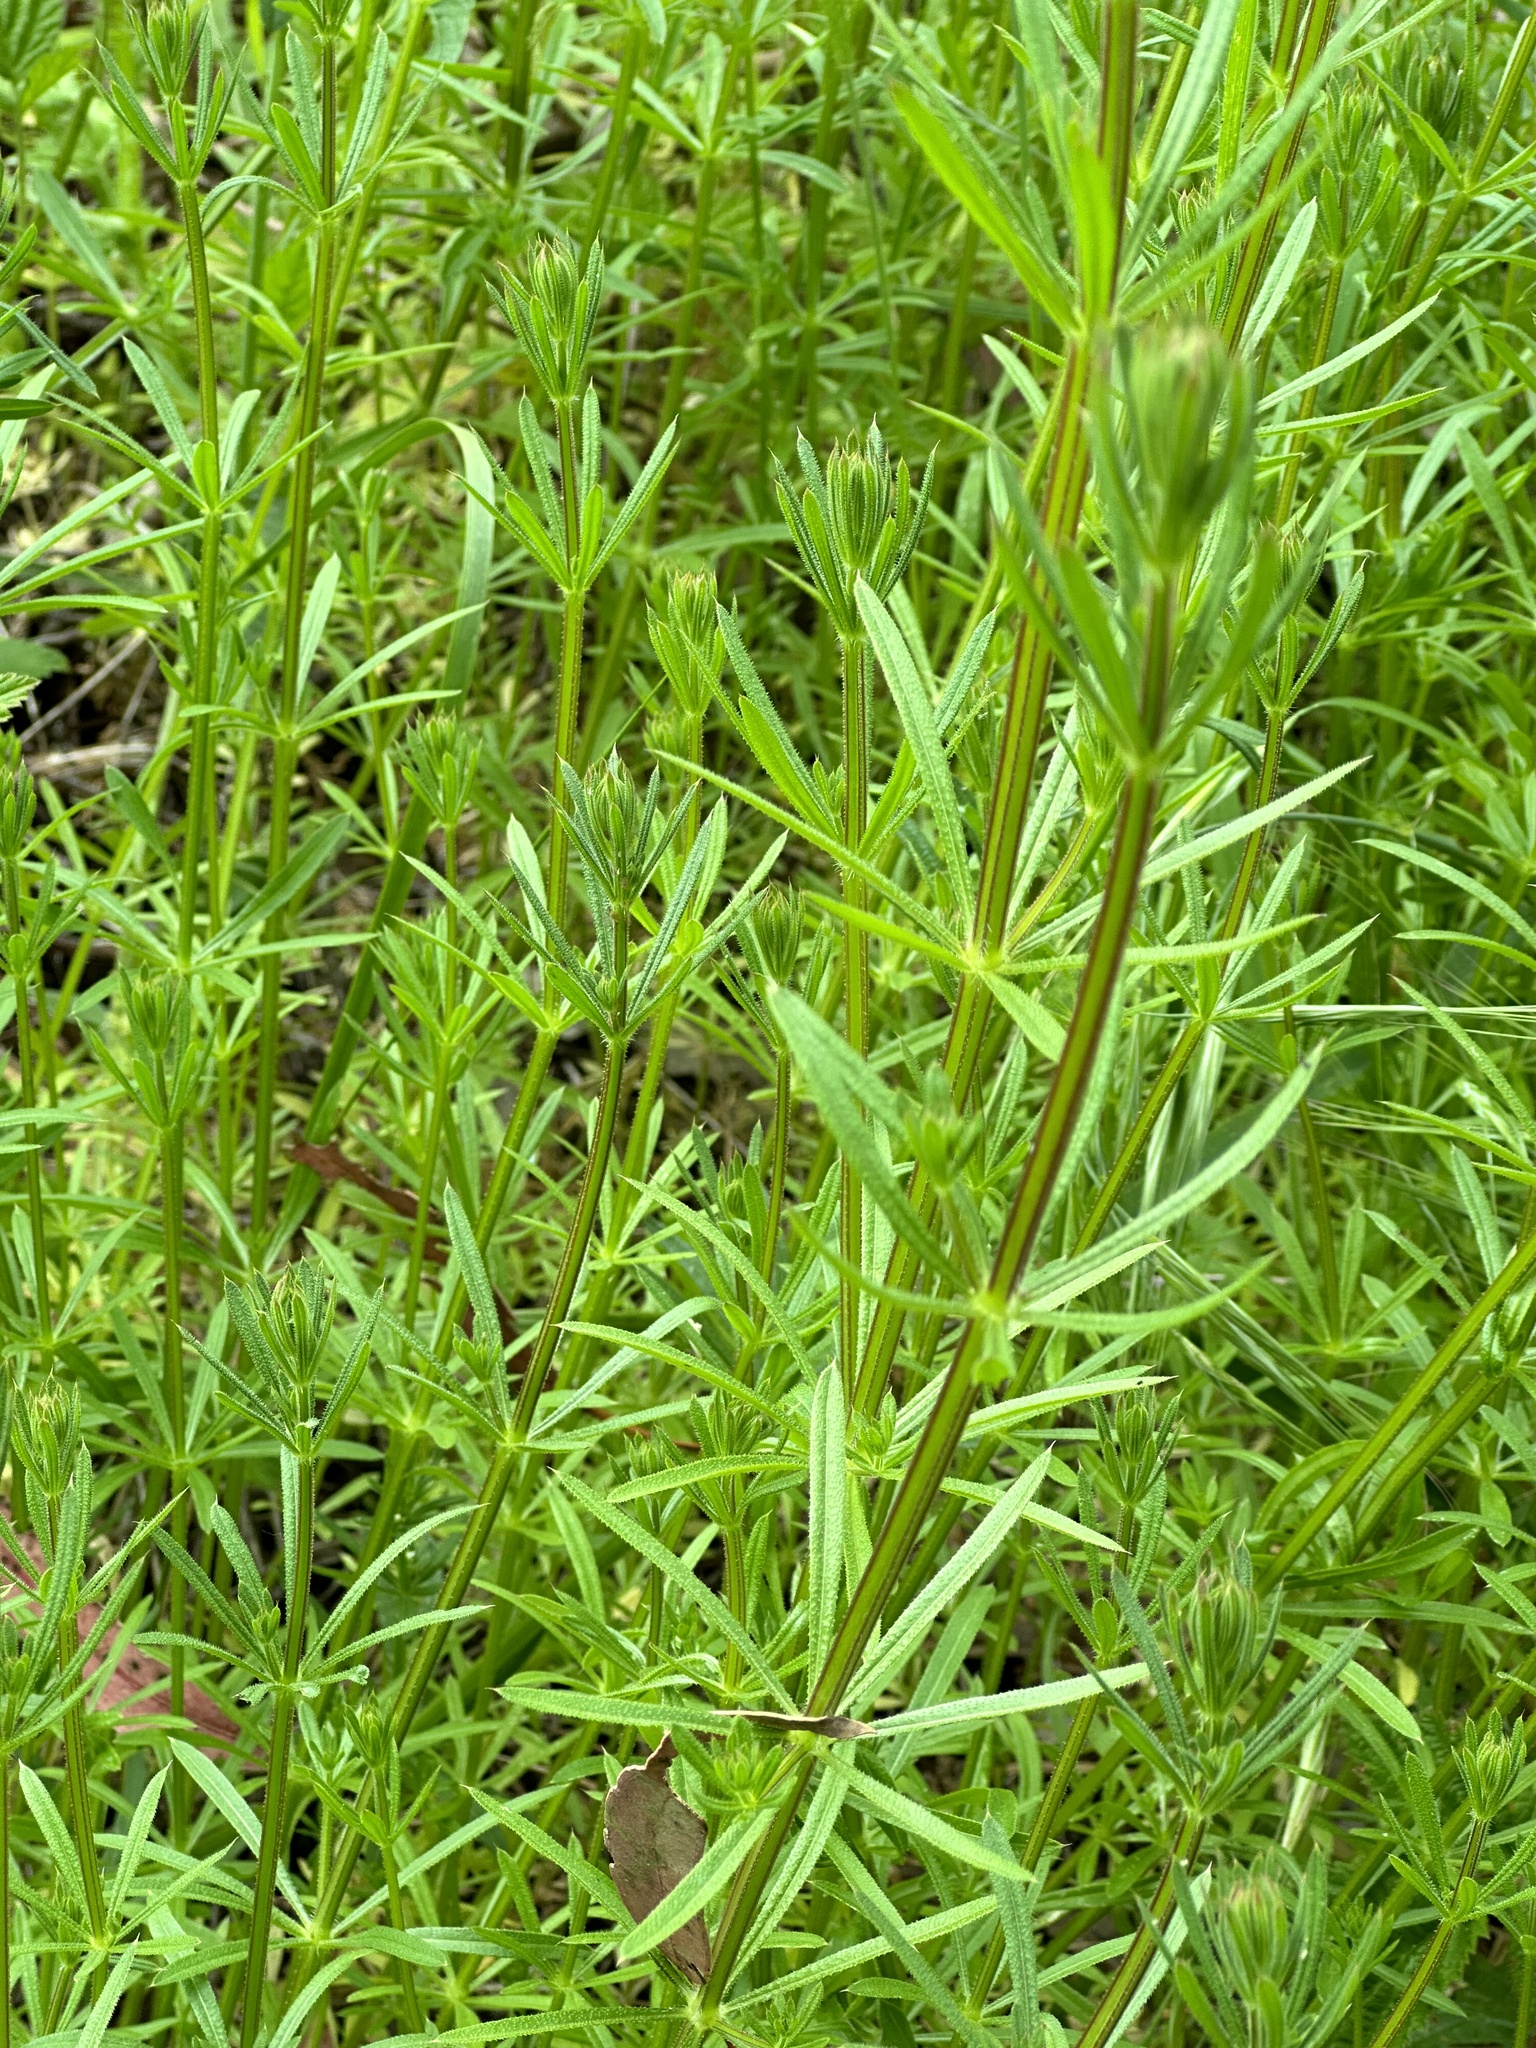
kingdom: Plantae
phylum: Tracheophyta
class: Magnoliopsida
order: Gentianales
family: Rubiaceae
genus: Galium
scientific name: Galium aparine
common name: Cleavers
